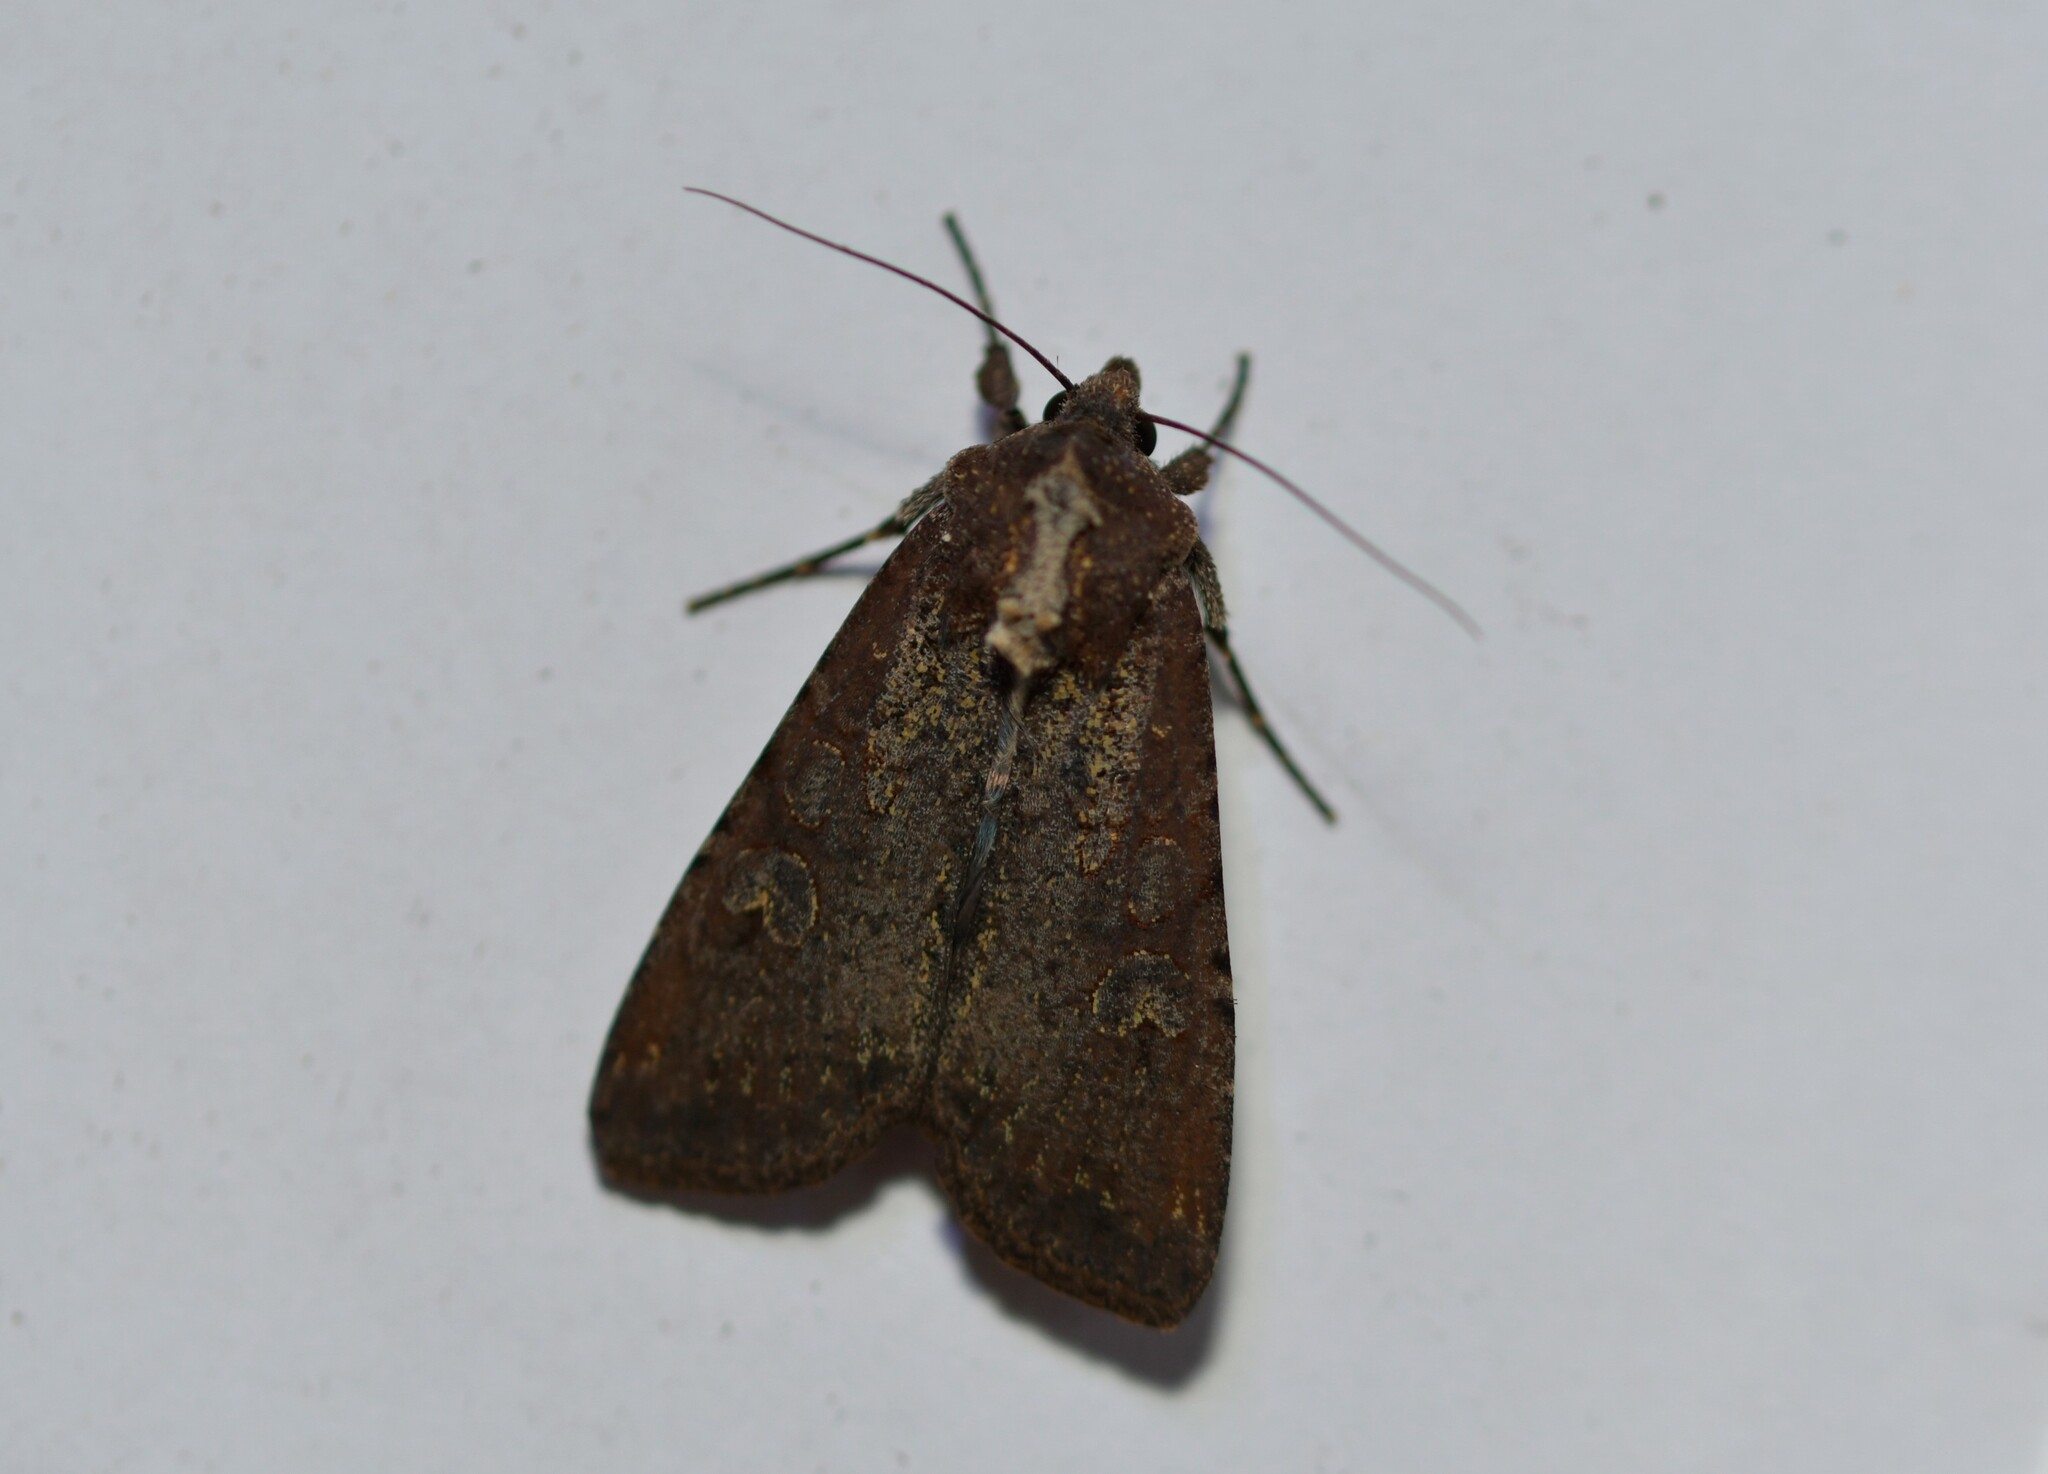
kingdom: Animalia
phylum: Arthropoda
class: Insecta
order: Lepidoptera
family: Noctuidae
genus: Peridroma
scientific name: Peridroma saucia
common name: Pearly underwing
